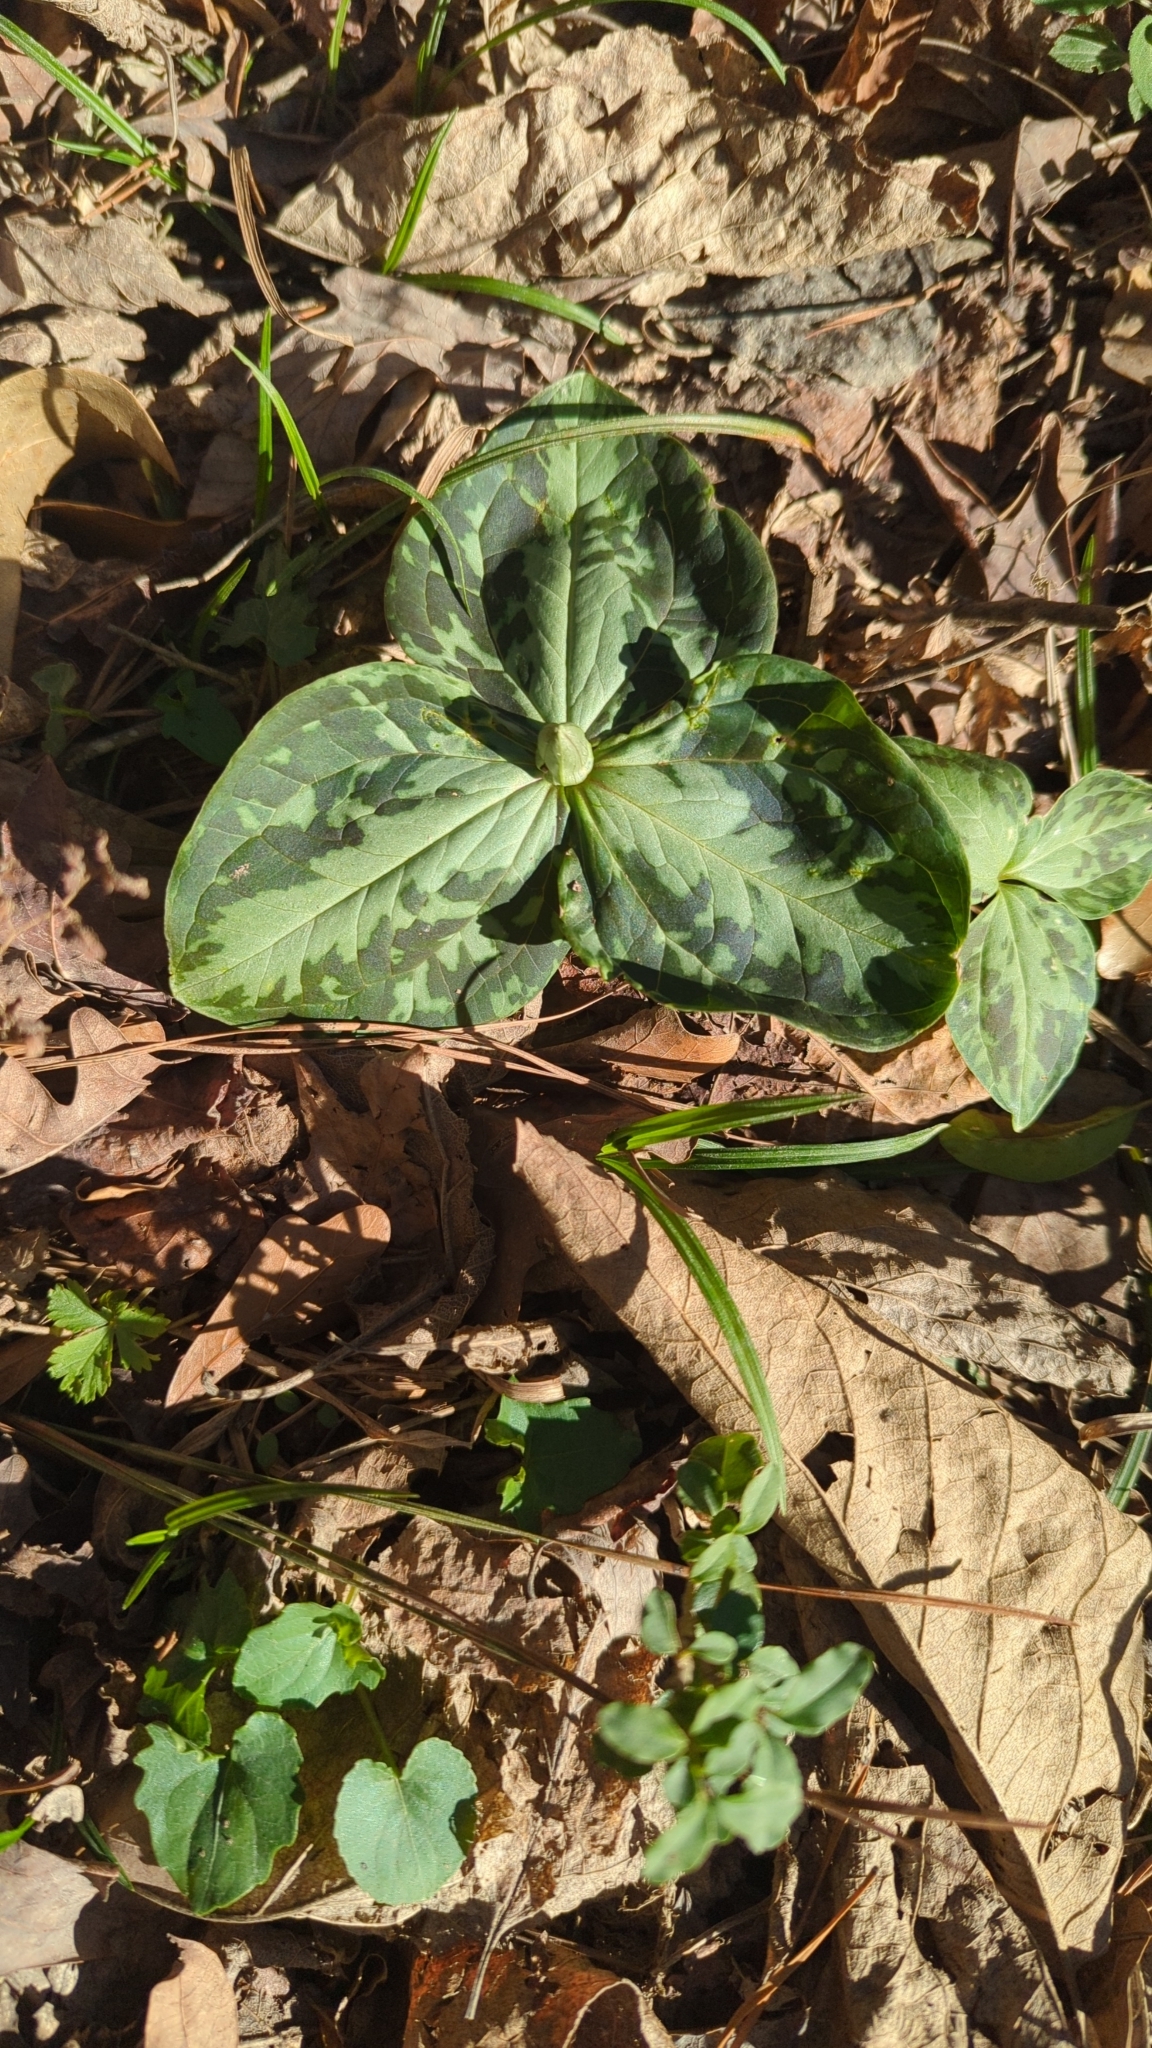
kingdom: Plantae
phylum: Tracheophyta
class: Liliopsida
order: Liliales
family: Melanthiaceae
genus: Trillium
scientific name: Trillium foetidissimum
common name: Mississippi river trillium
